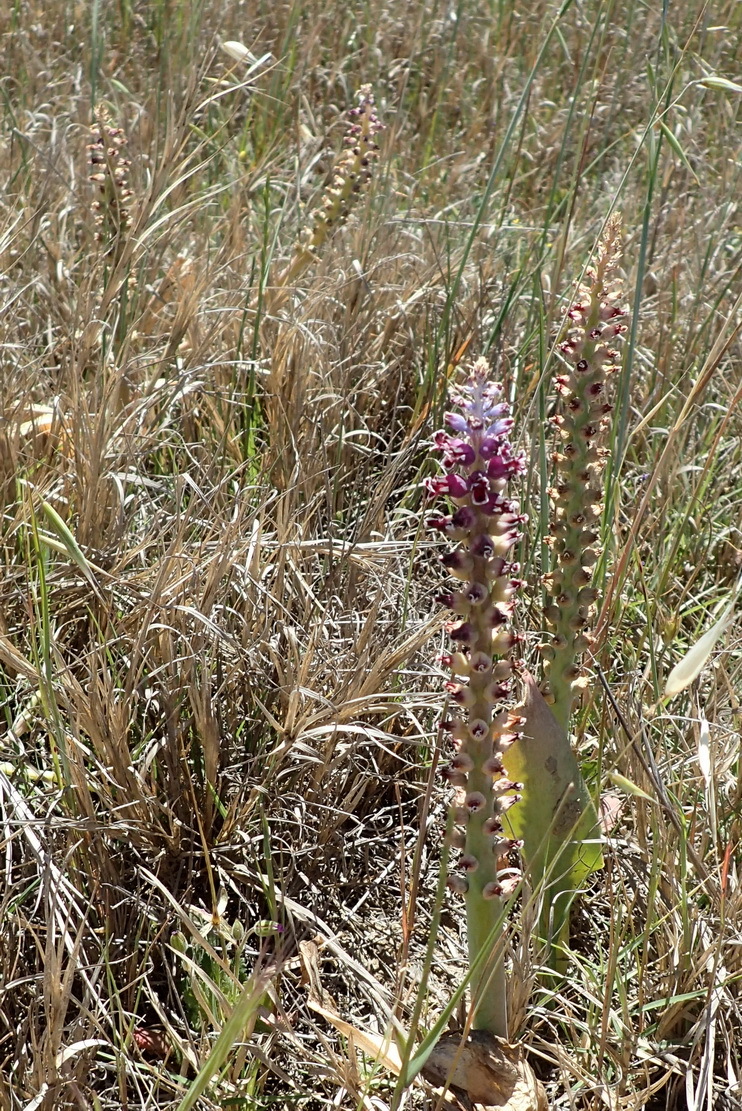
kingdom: Plantae
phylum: Tracheophyta
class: Liliopsida
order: Asparagales
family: Asparagaceae
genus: Lachenalia
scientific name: Lachenalia membranacea
